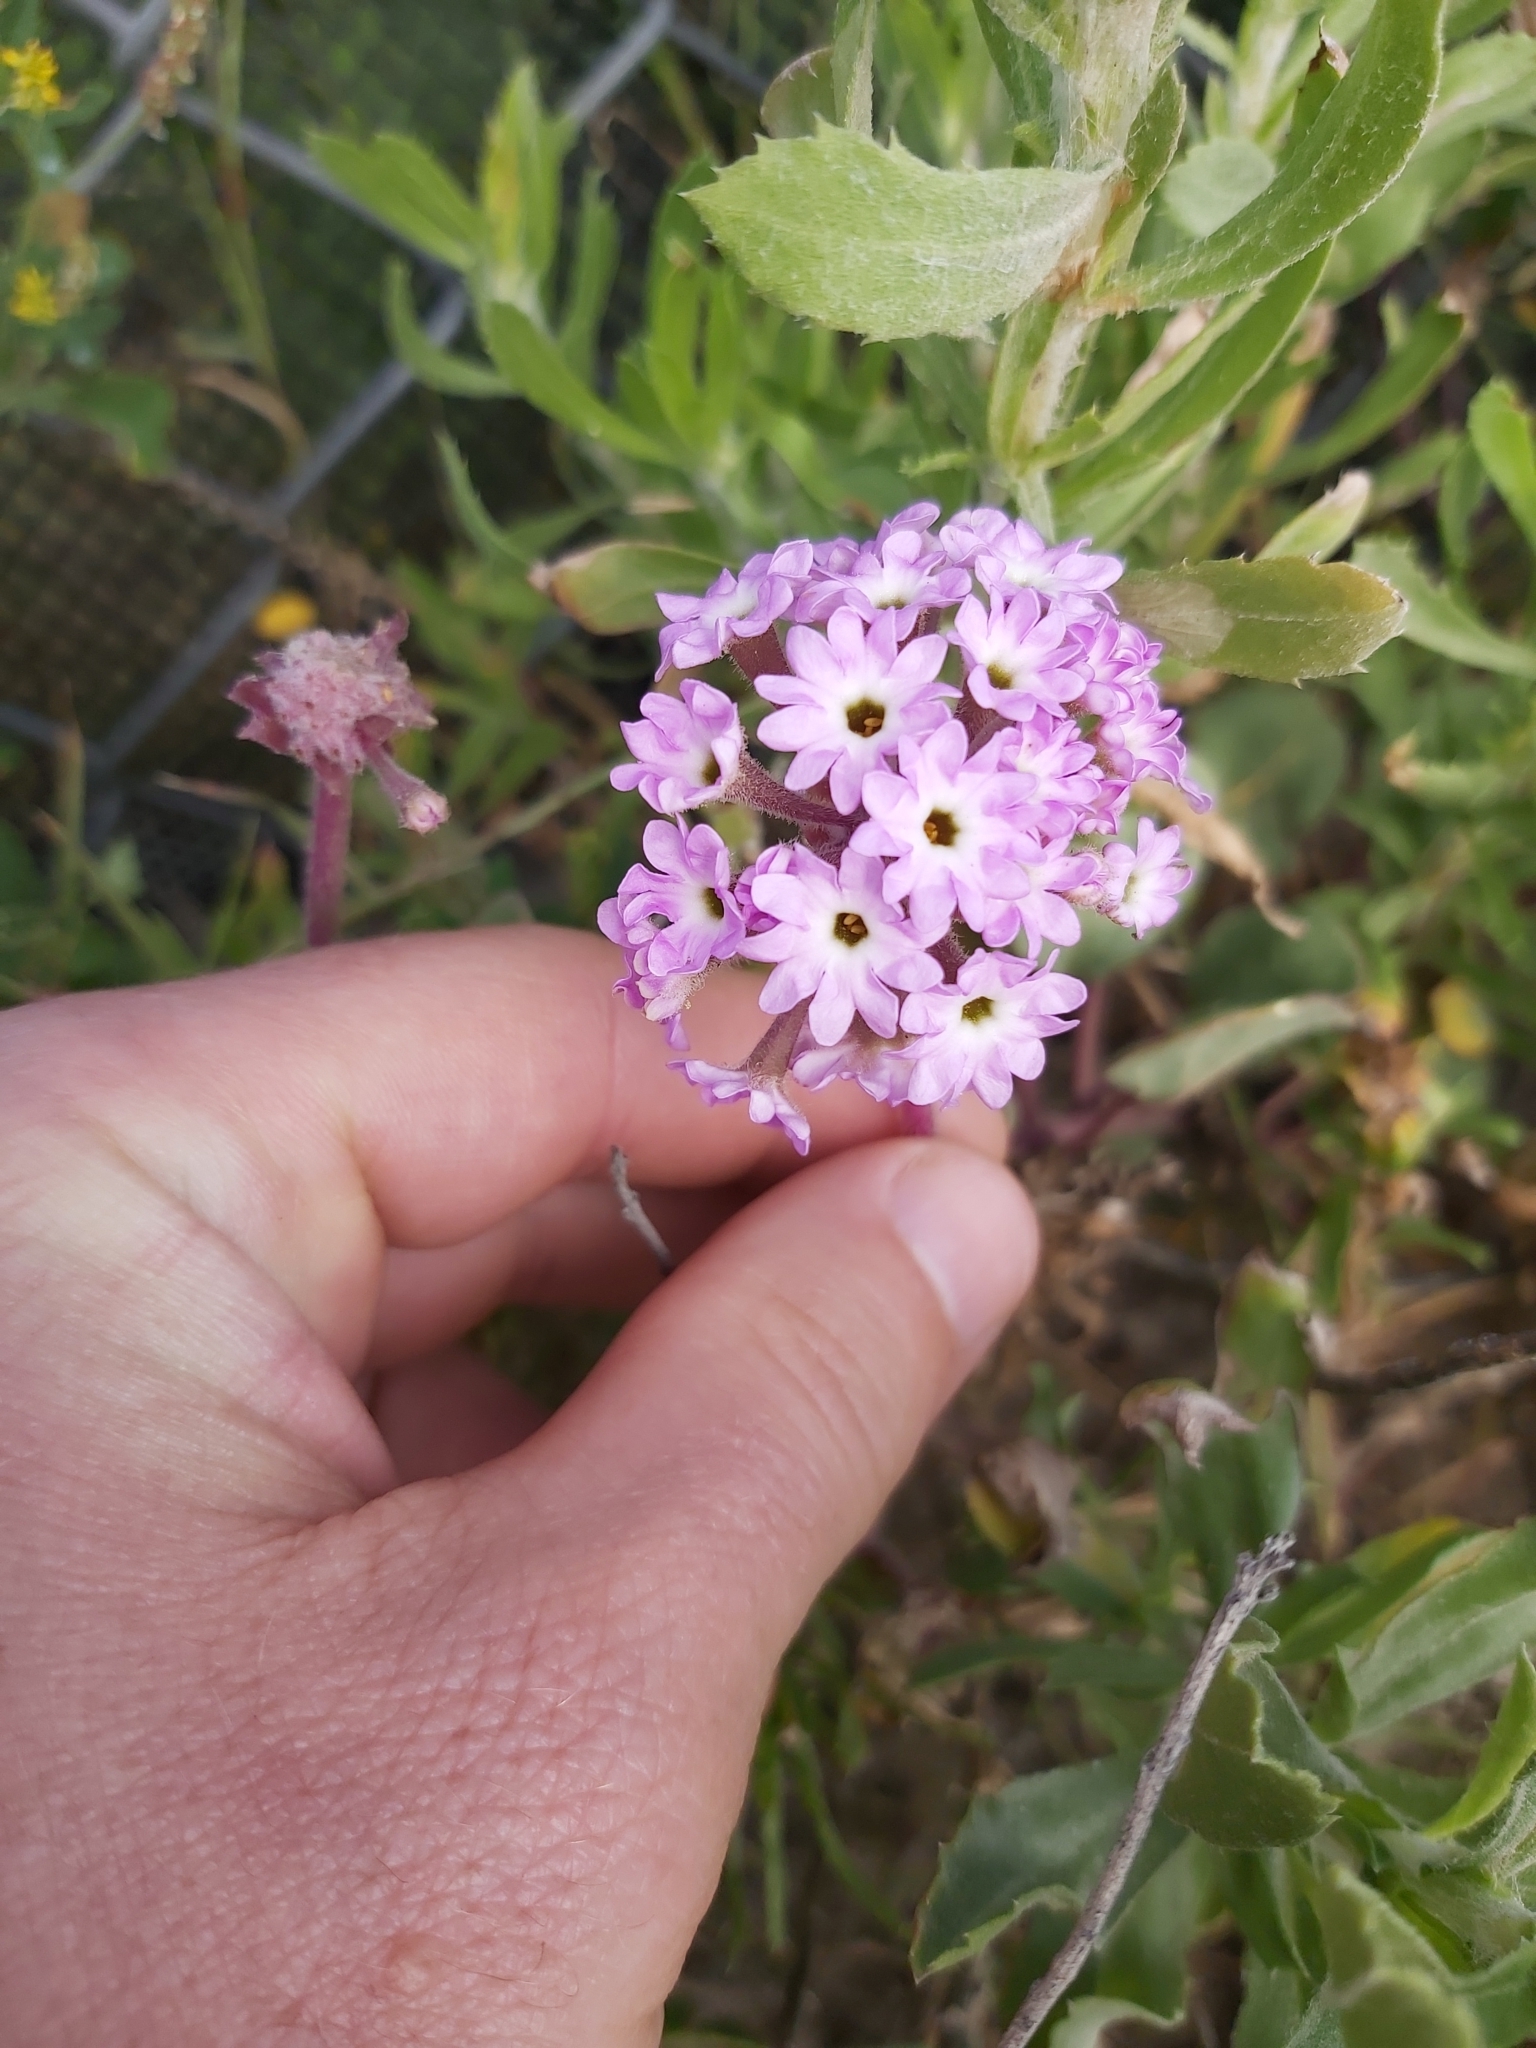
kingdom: Plantae
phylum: Tracheophyta
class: Magnoliopsida
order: Caryophyllales
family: Nyctaginaceae
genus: Abronia
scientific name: Abronia
